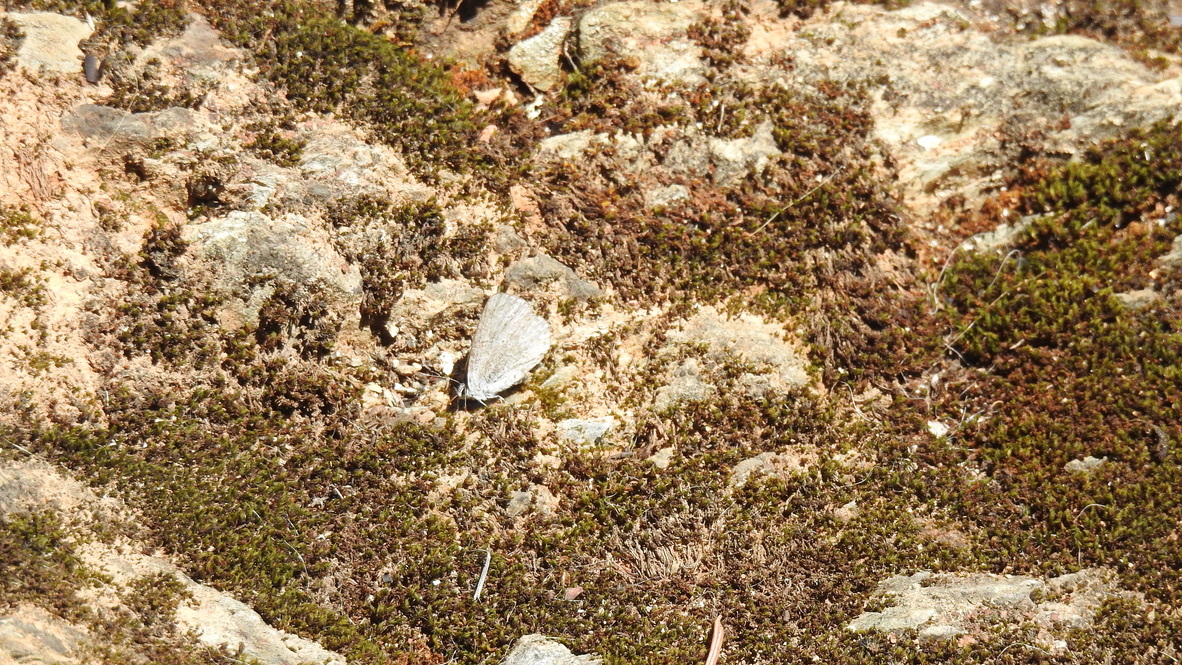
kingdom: Animalia
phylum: Arthropoda
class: Insecta
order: Lepidoptera
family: Lycaenidae
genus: Celastrina
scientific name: Celastrina ladon
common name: Spring azure
